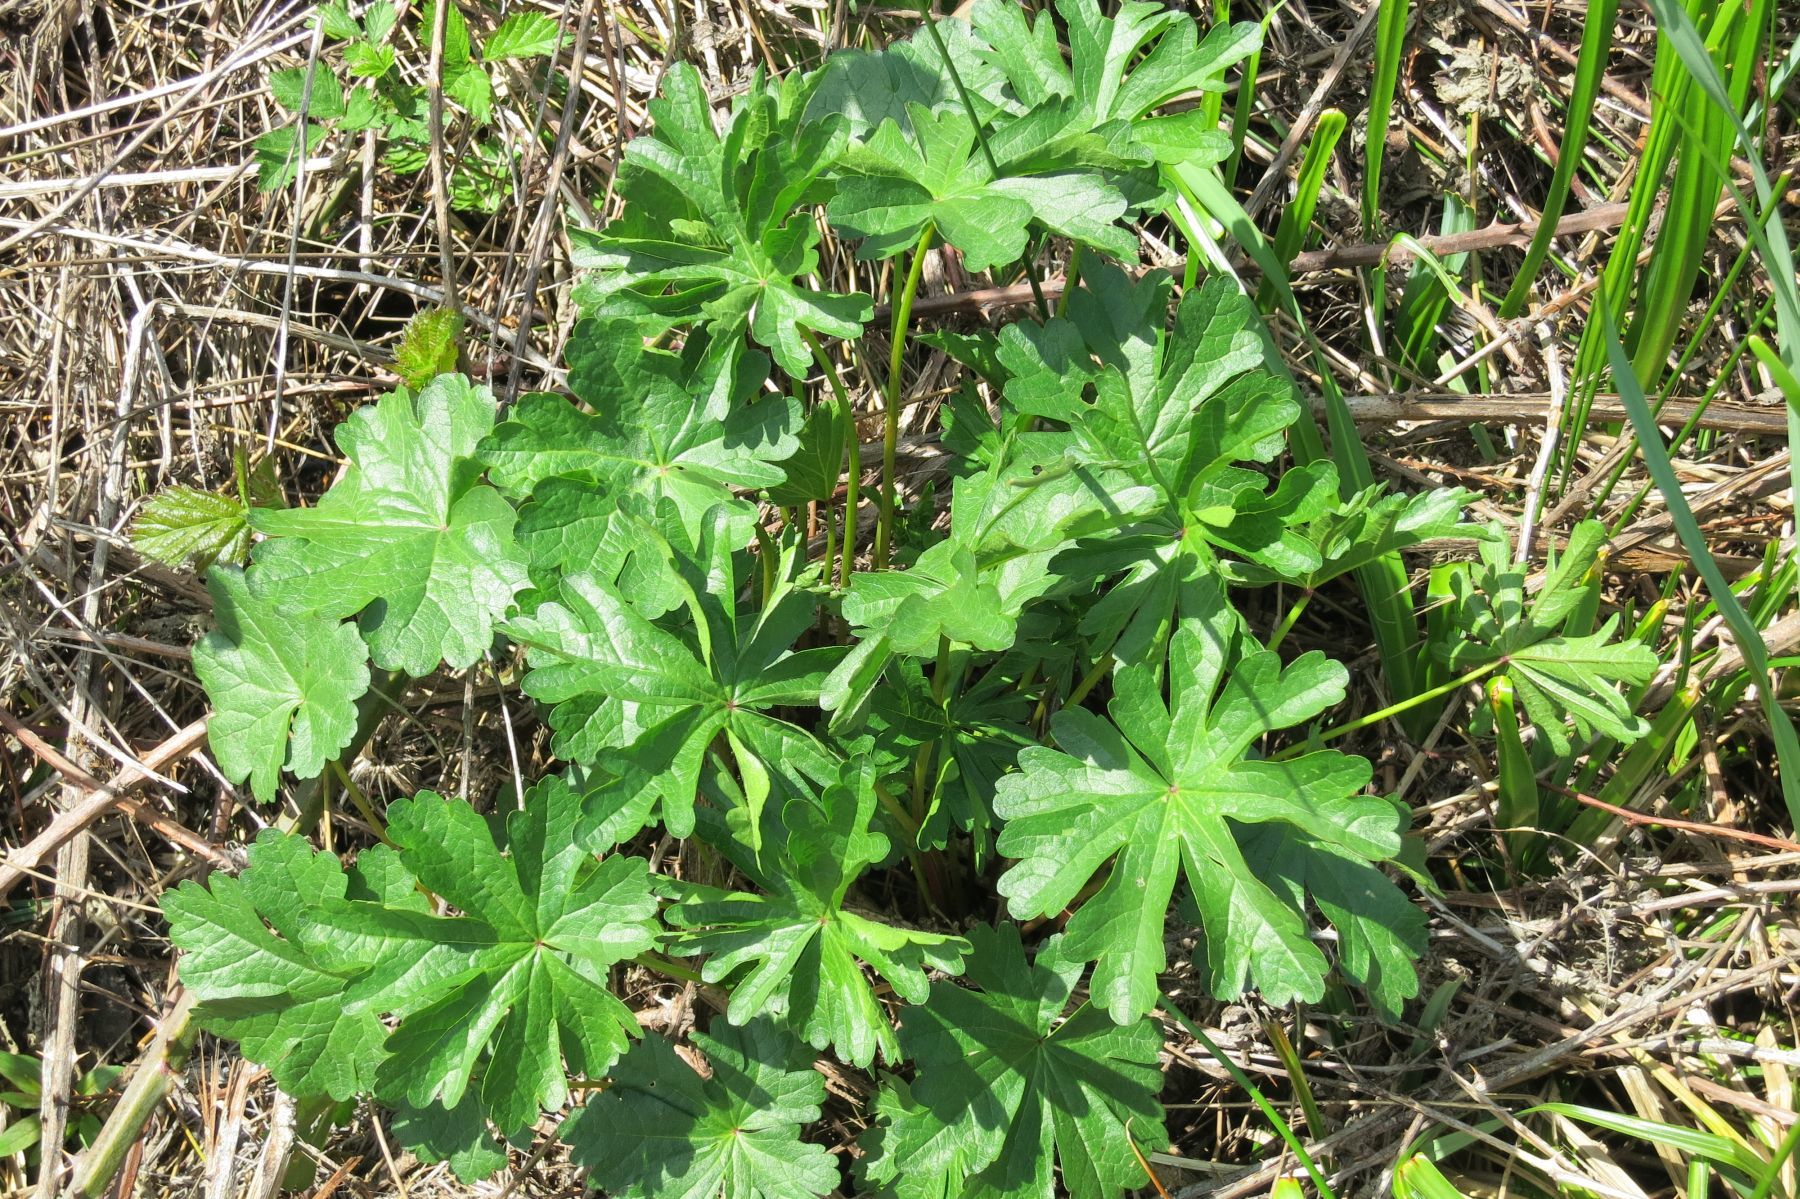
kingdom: Plantae
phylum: Tracheophyta
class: Magnoliopsida
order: Malvales
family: Malvaceae
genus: Sidalcea
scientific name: Sidalcea cusickii
